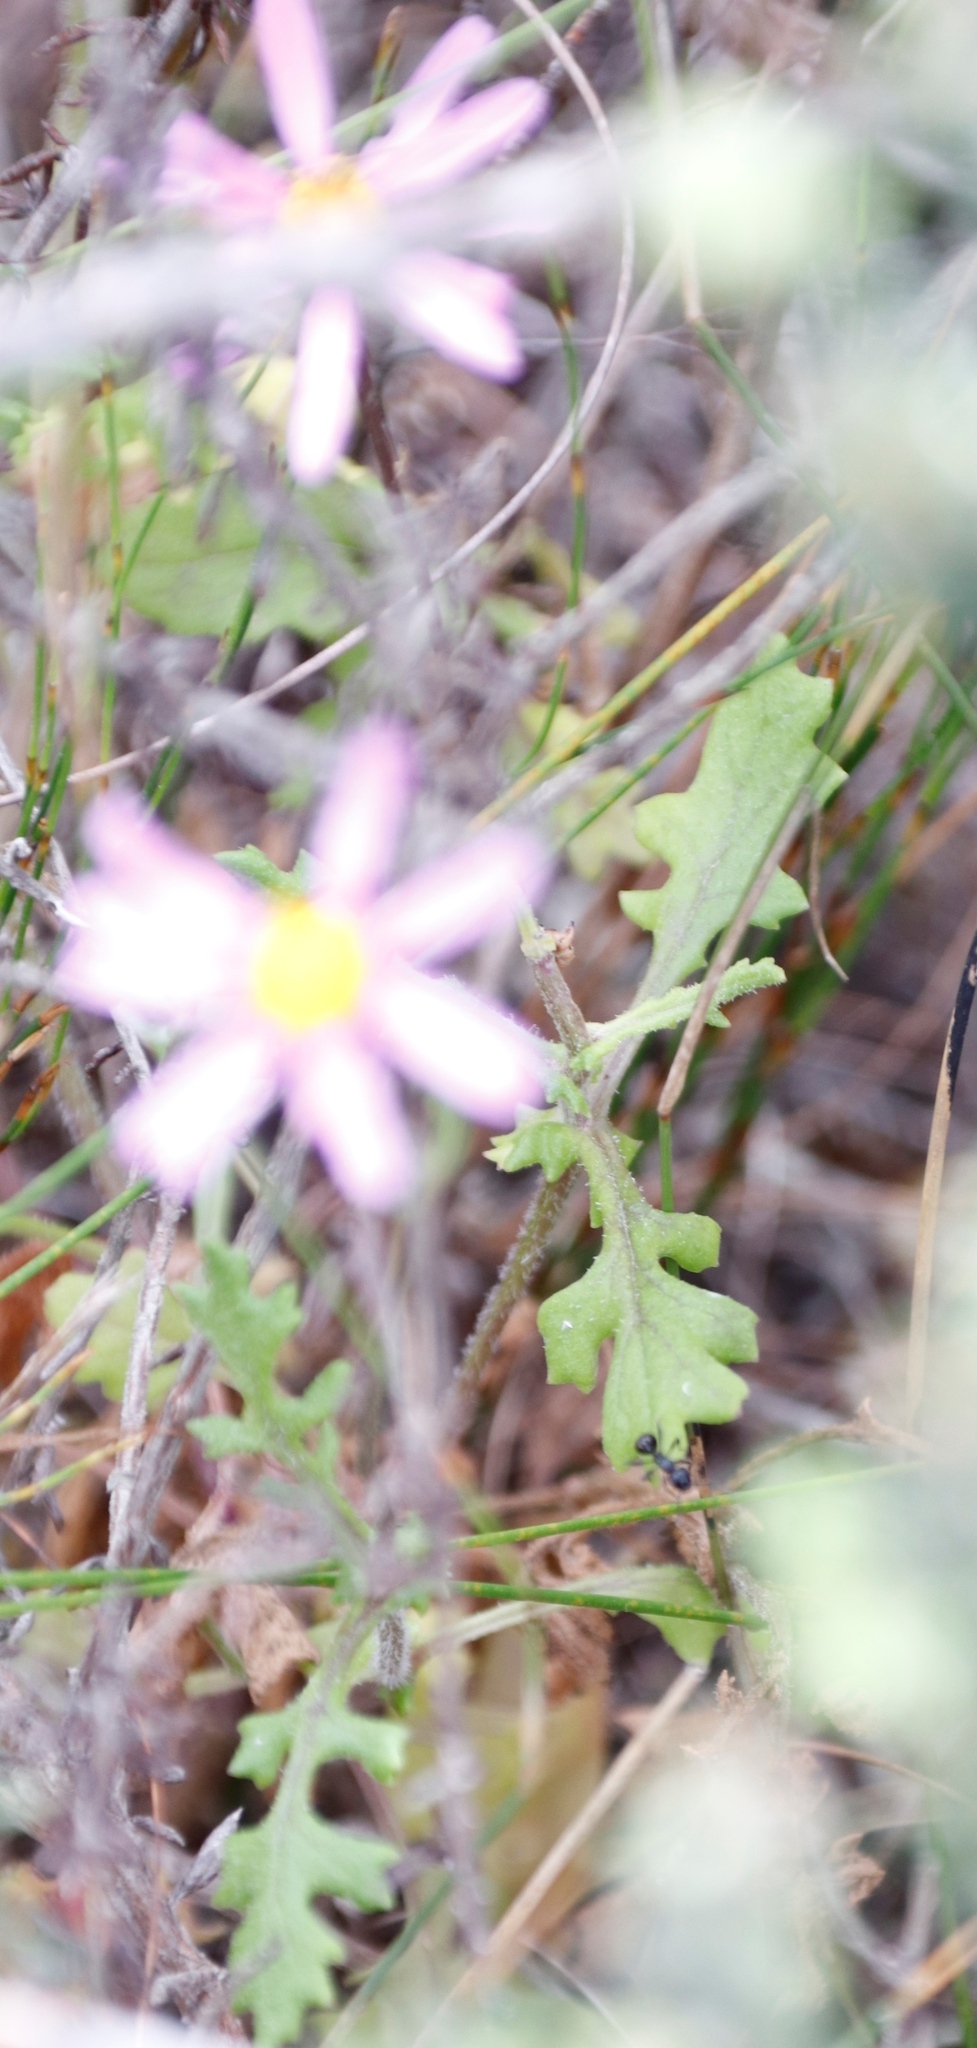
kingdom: Plantae
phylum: Tracheophyta
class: Magnoliopsida
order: Asterales
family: Asteraceae
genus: Senecio
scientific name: Senecio arenarius
